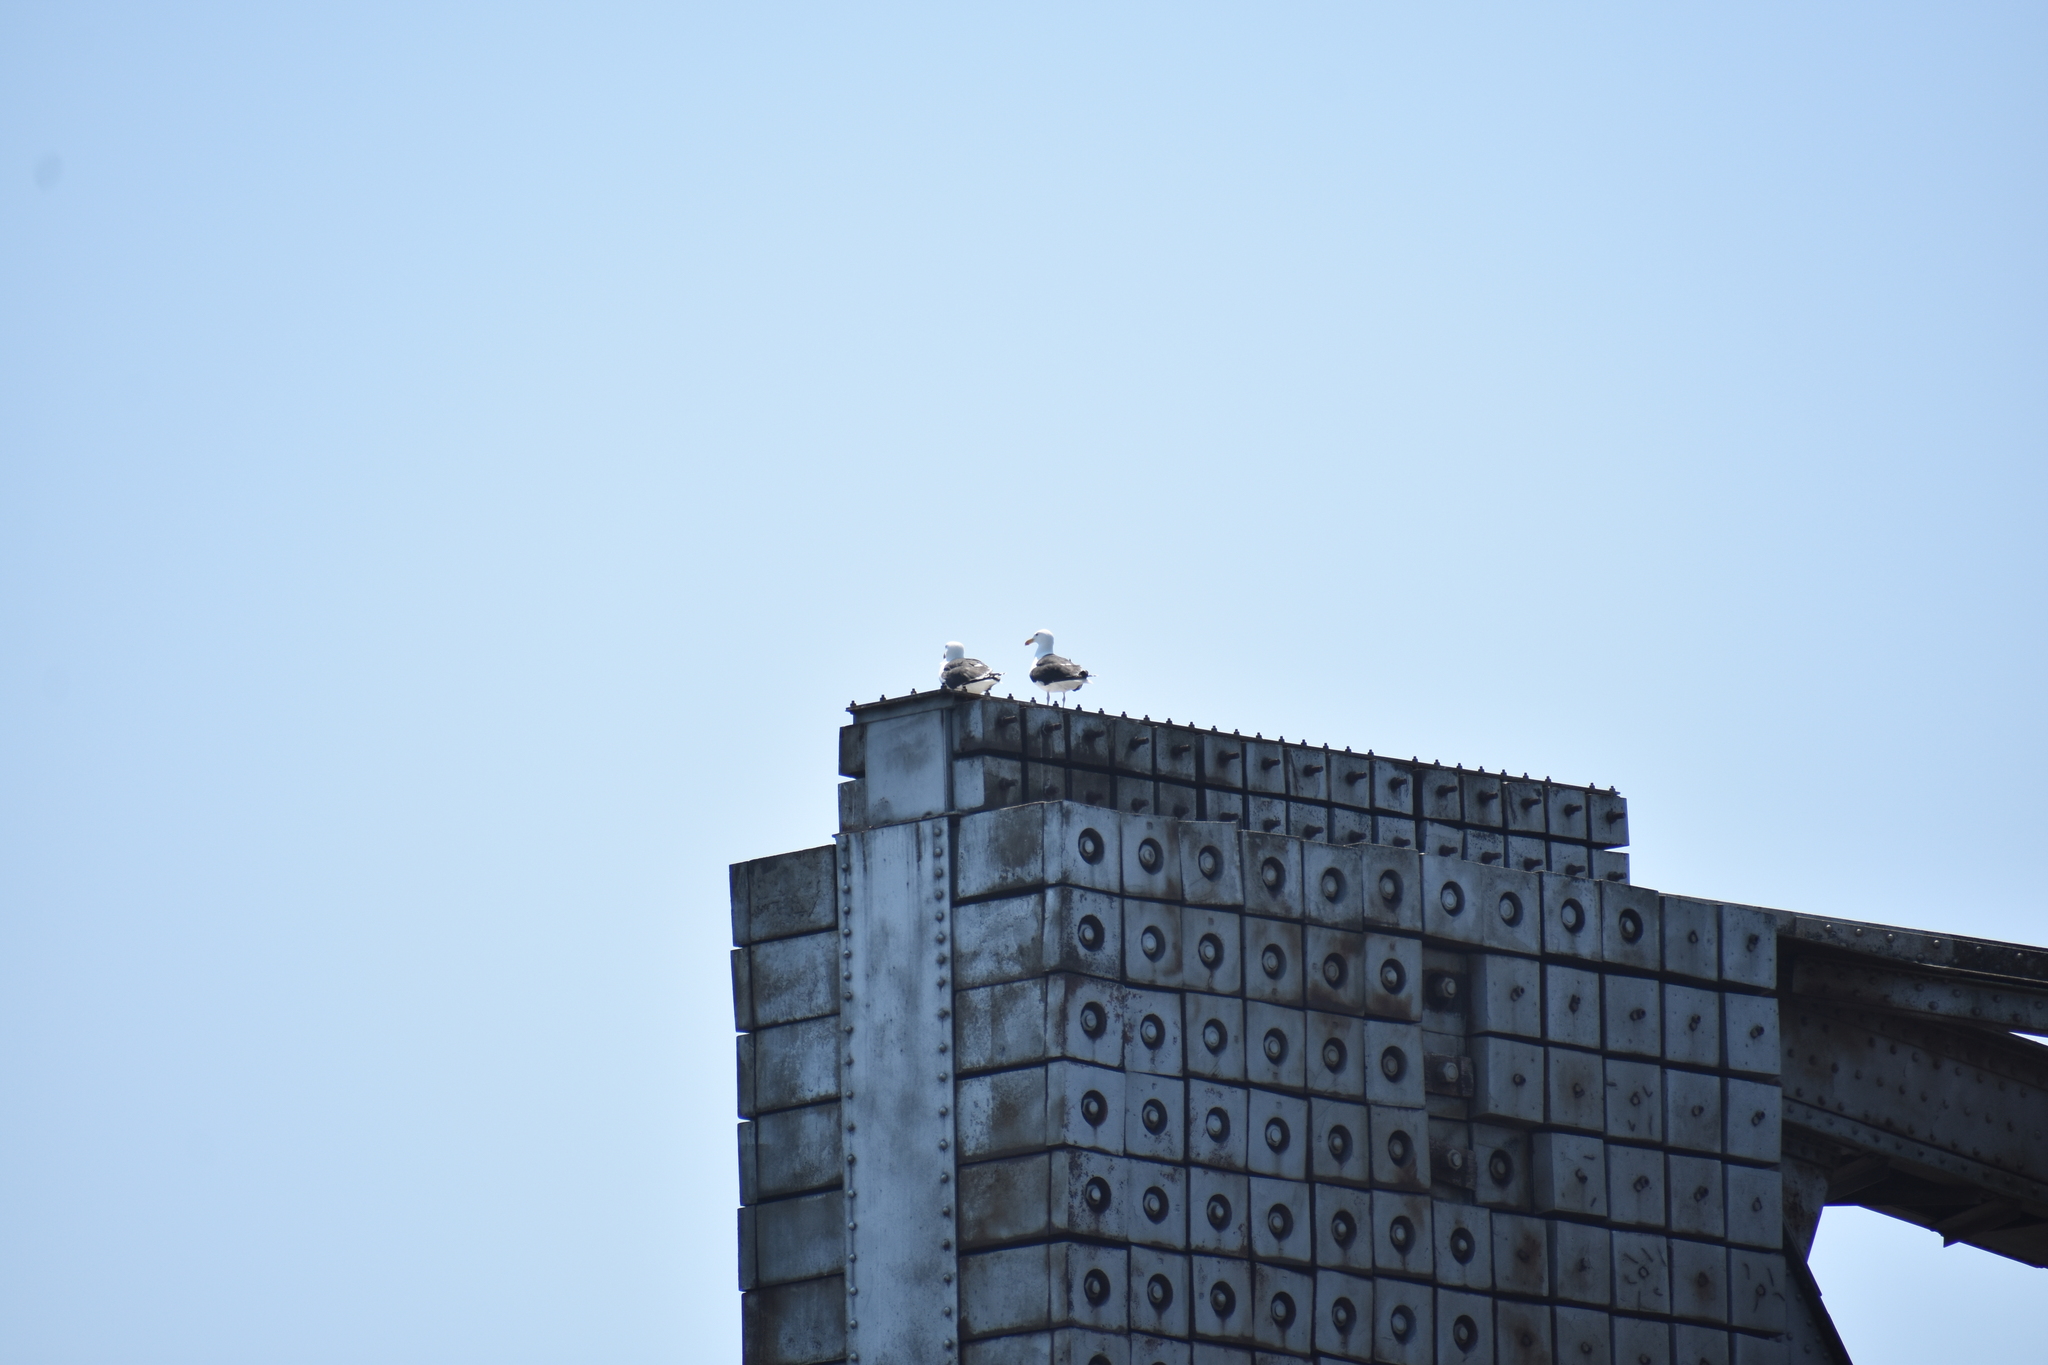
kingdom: Animalia
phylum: Chordata
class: Aves
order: Charadriiformes
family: Laridae
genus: Larus
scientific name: Larus marinus
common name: Great black-backed gull
